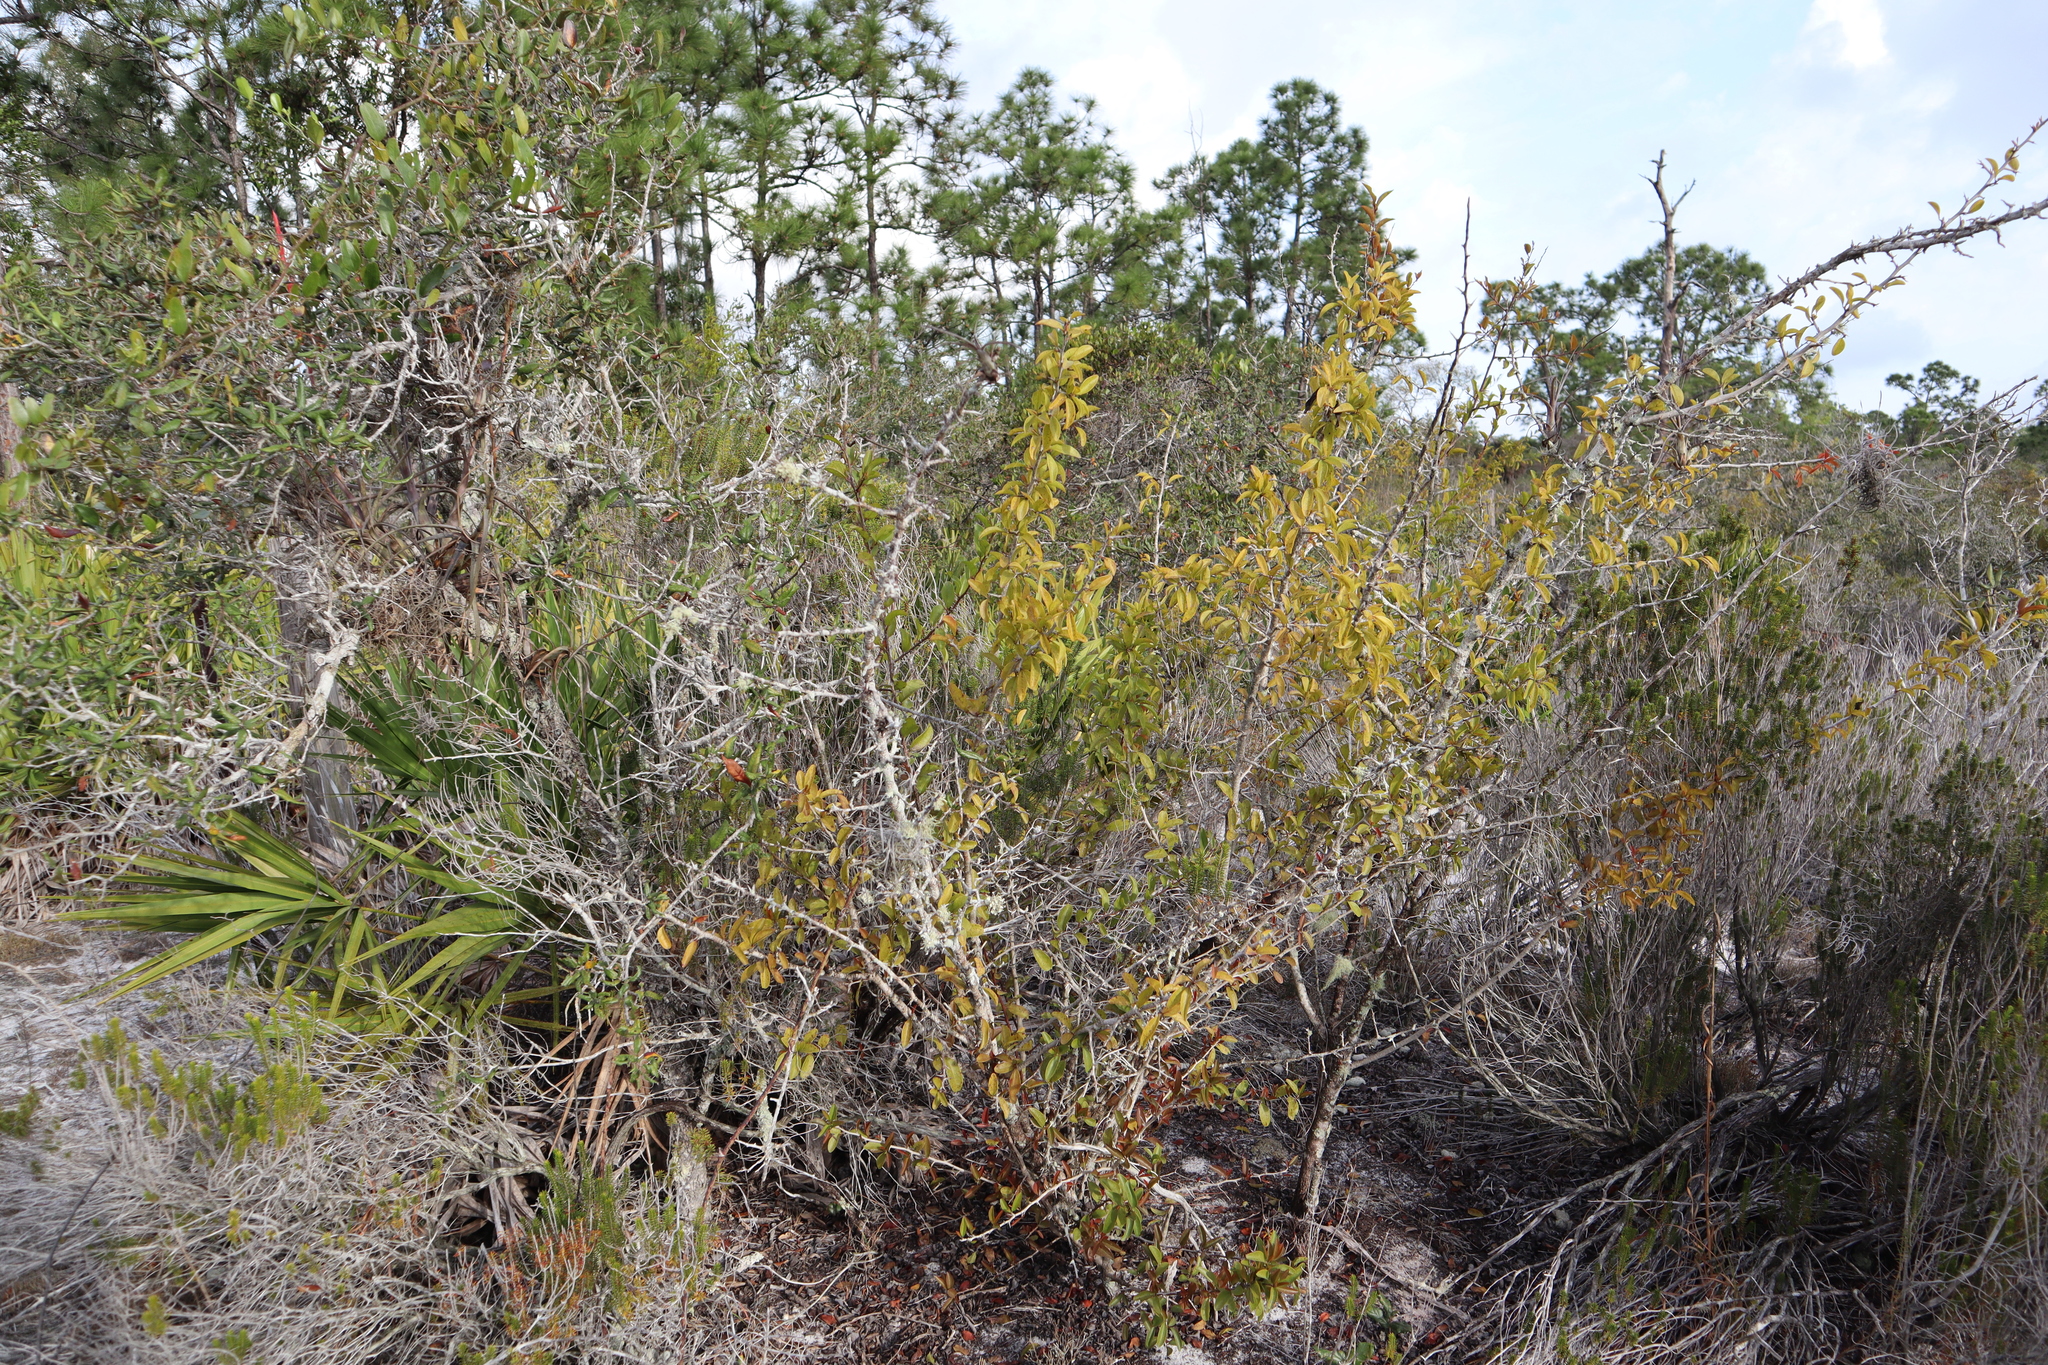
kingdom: Plantae
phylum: Tracheophyta
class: Magnoliopsida
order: Santalales
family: Ximeniaceae
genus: Ximenia
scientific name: Ximenia americana
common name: Tallowwood
